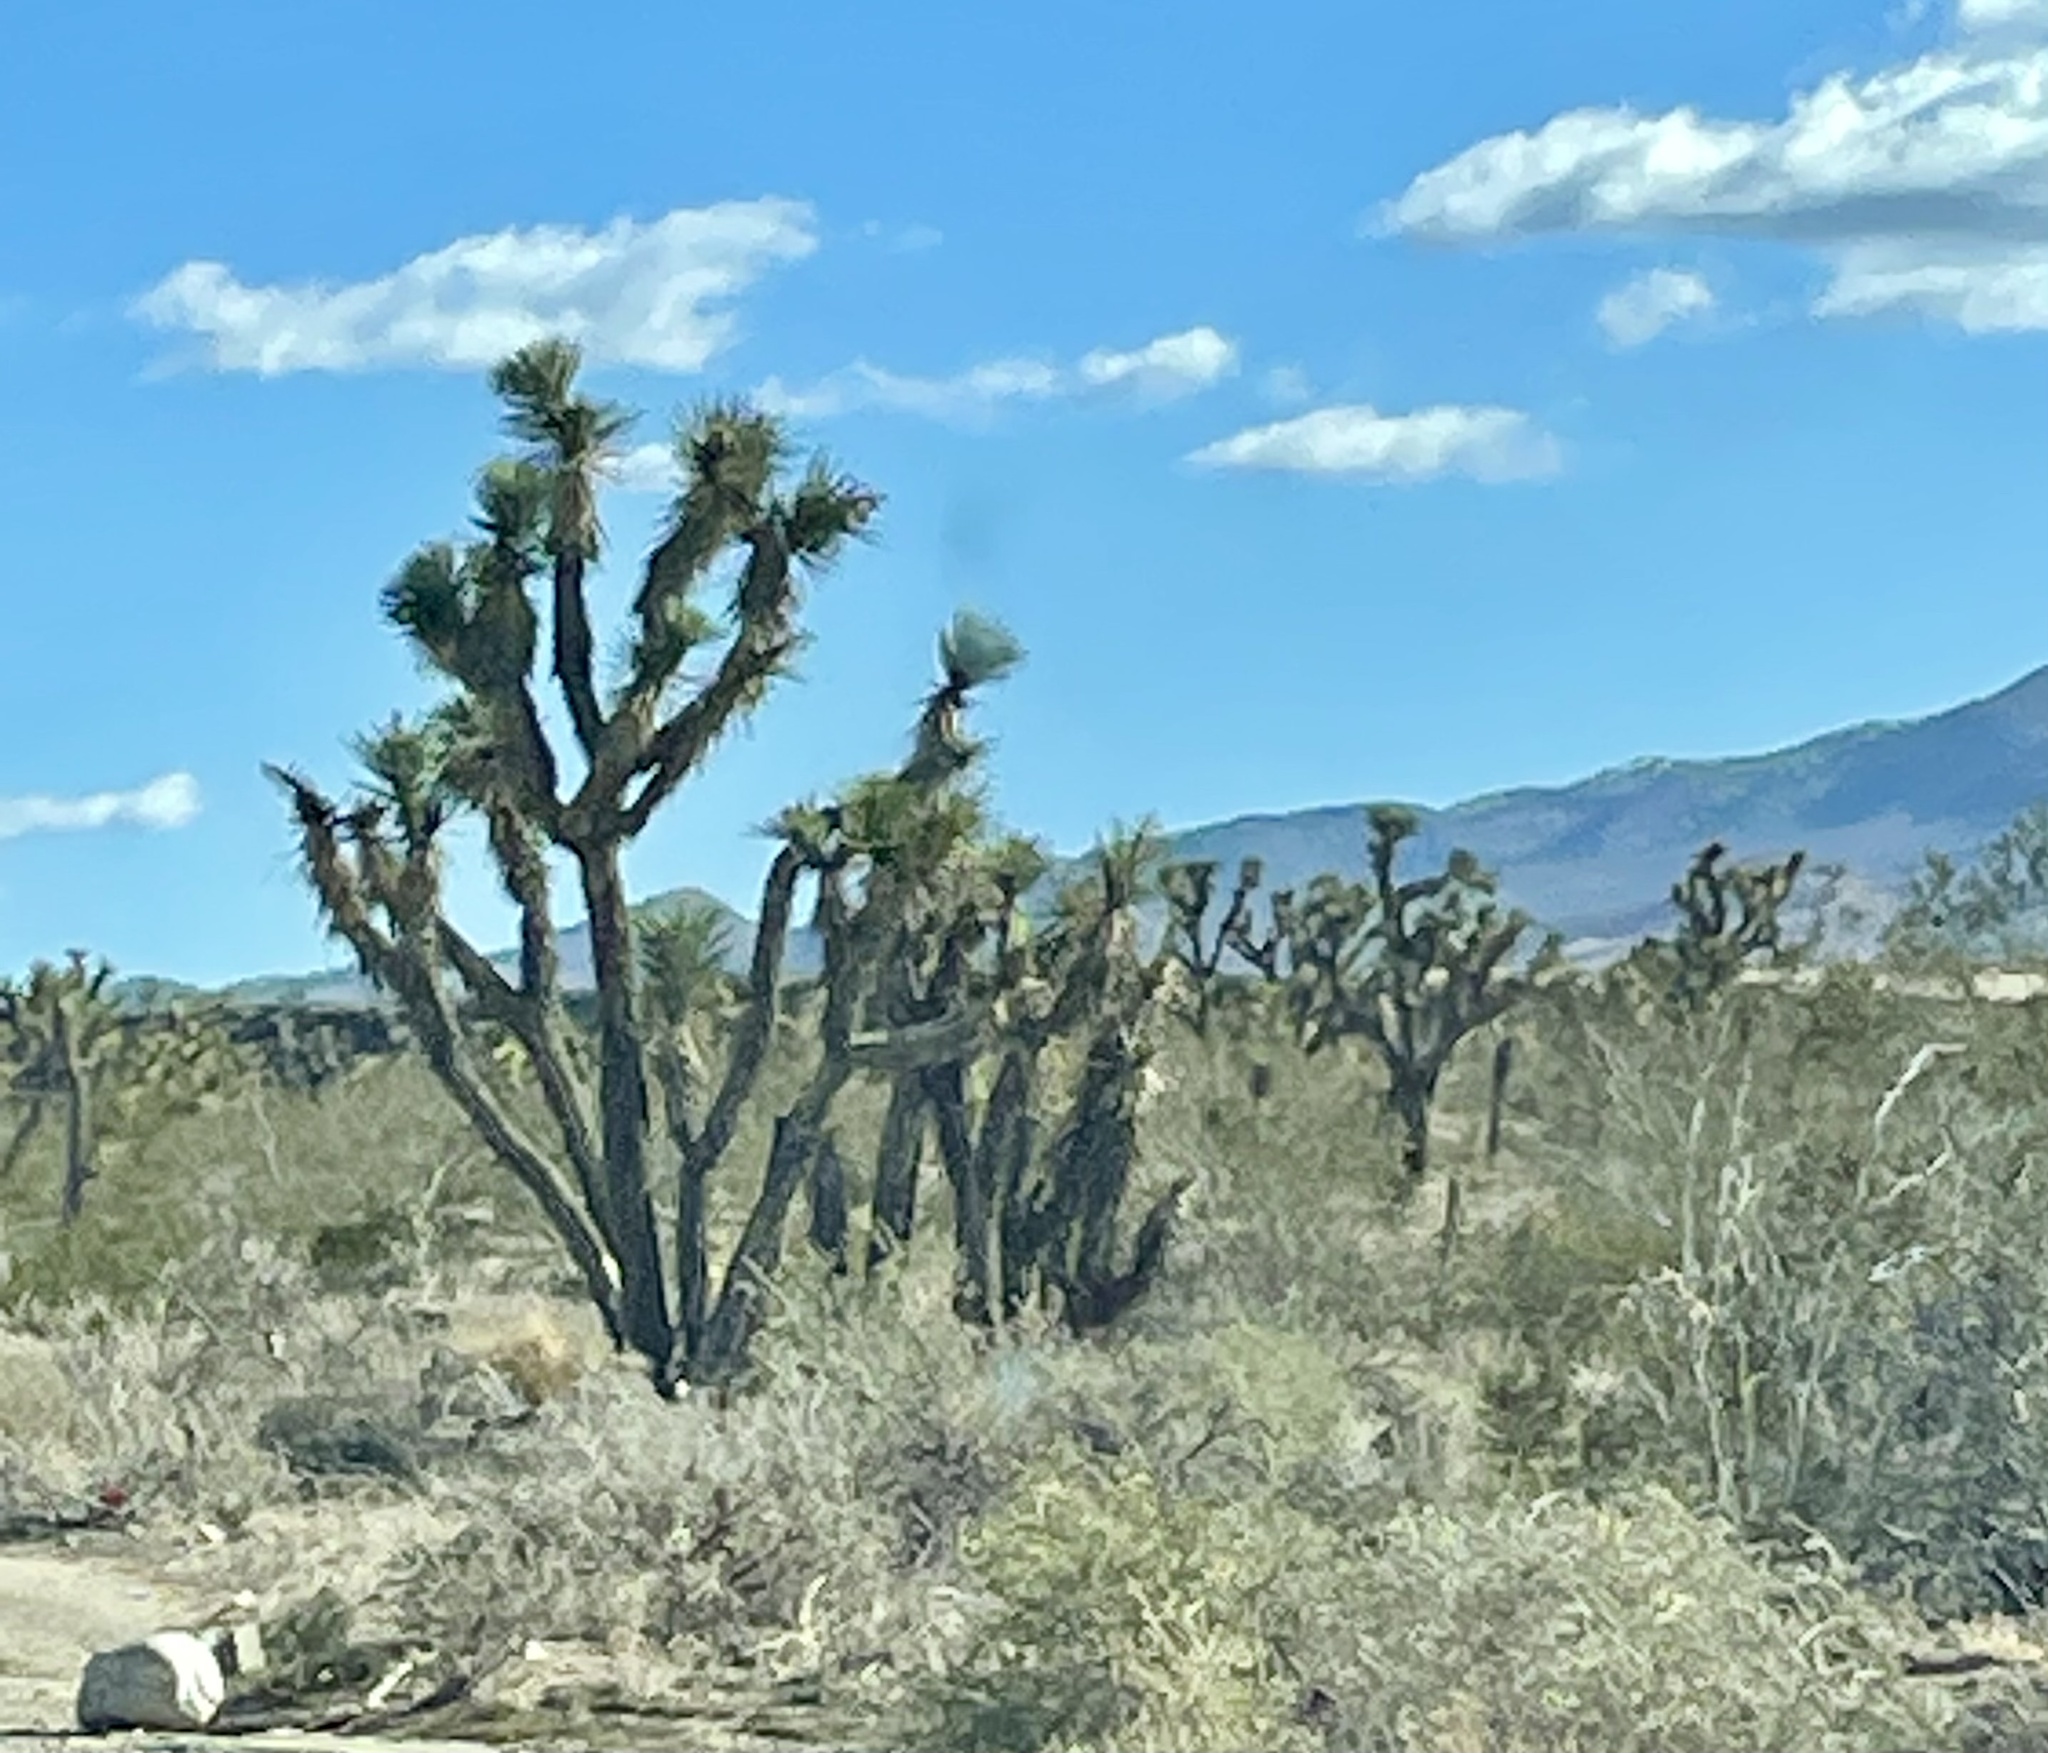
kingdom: Plantae
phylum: Tracheophyta
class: Liliopsida
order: Asparagales
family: Asparagaceae
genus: Yucca
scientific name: Yucca brevifolia
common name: Joshua tree
